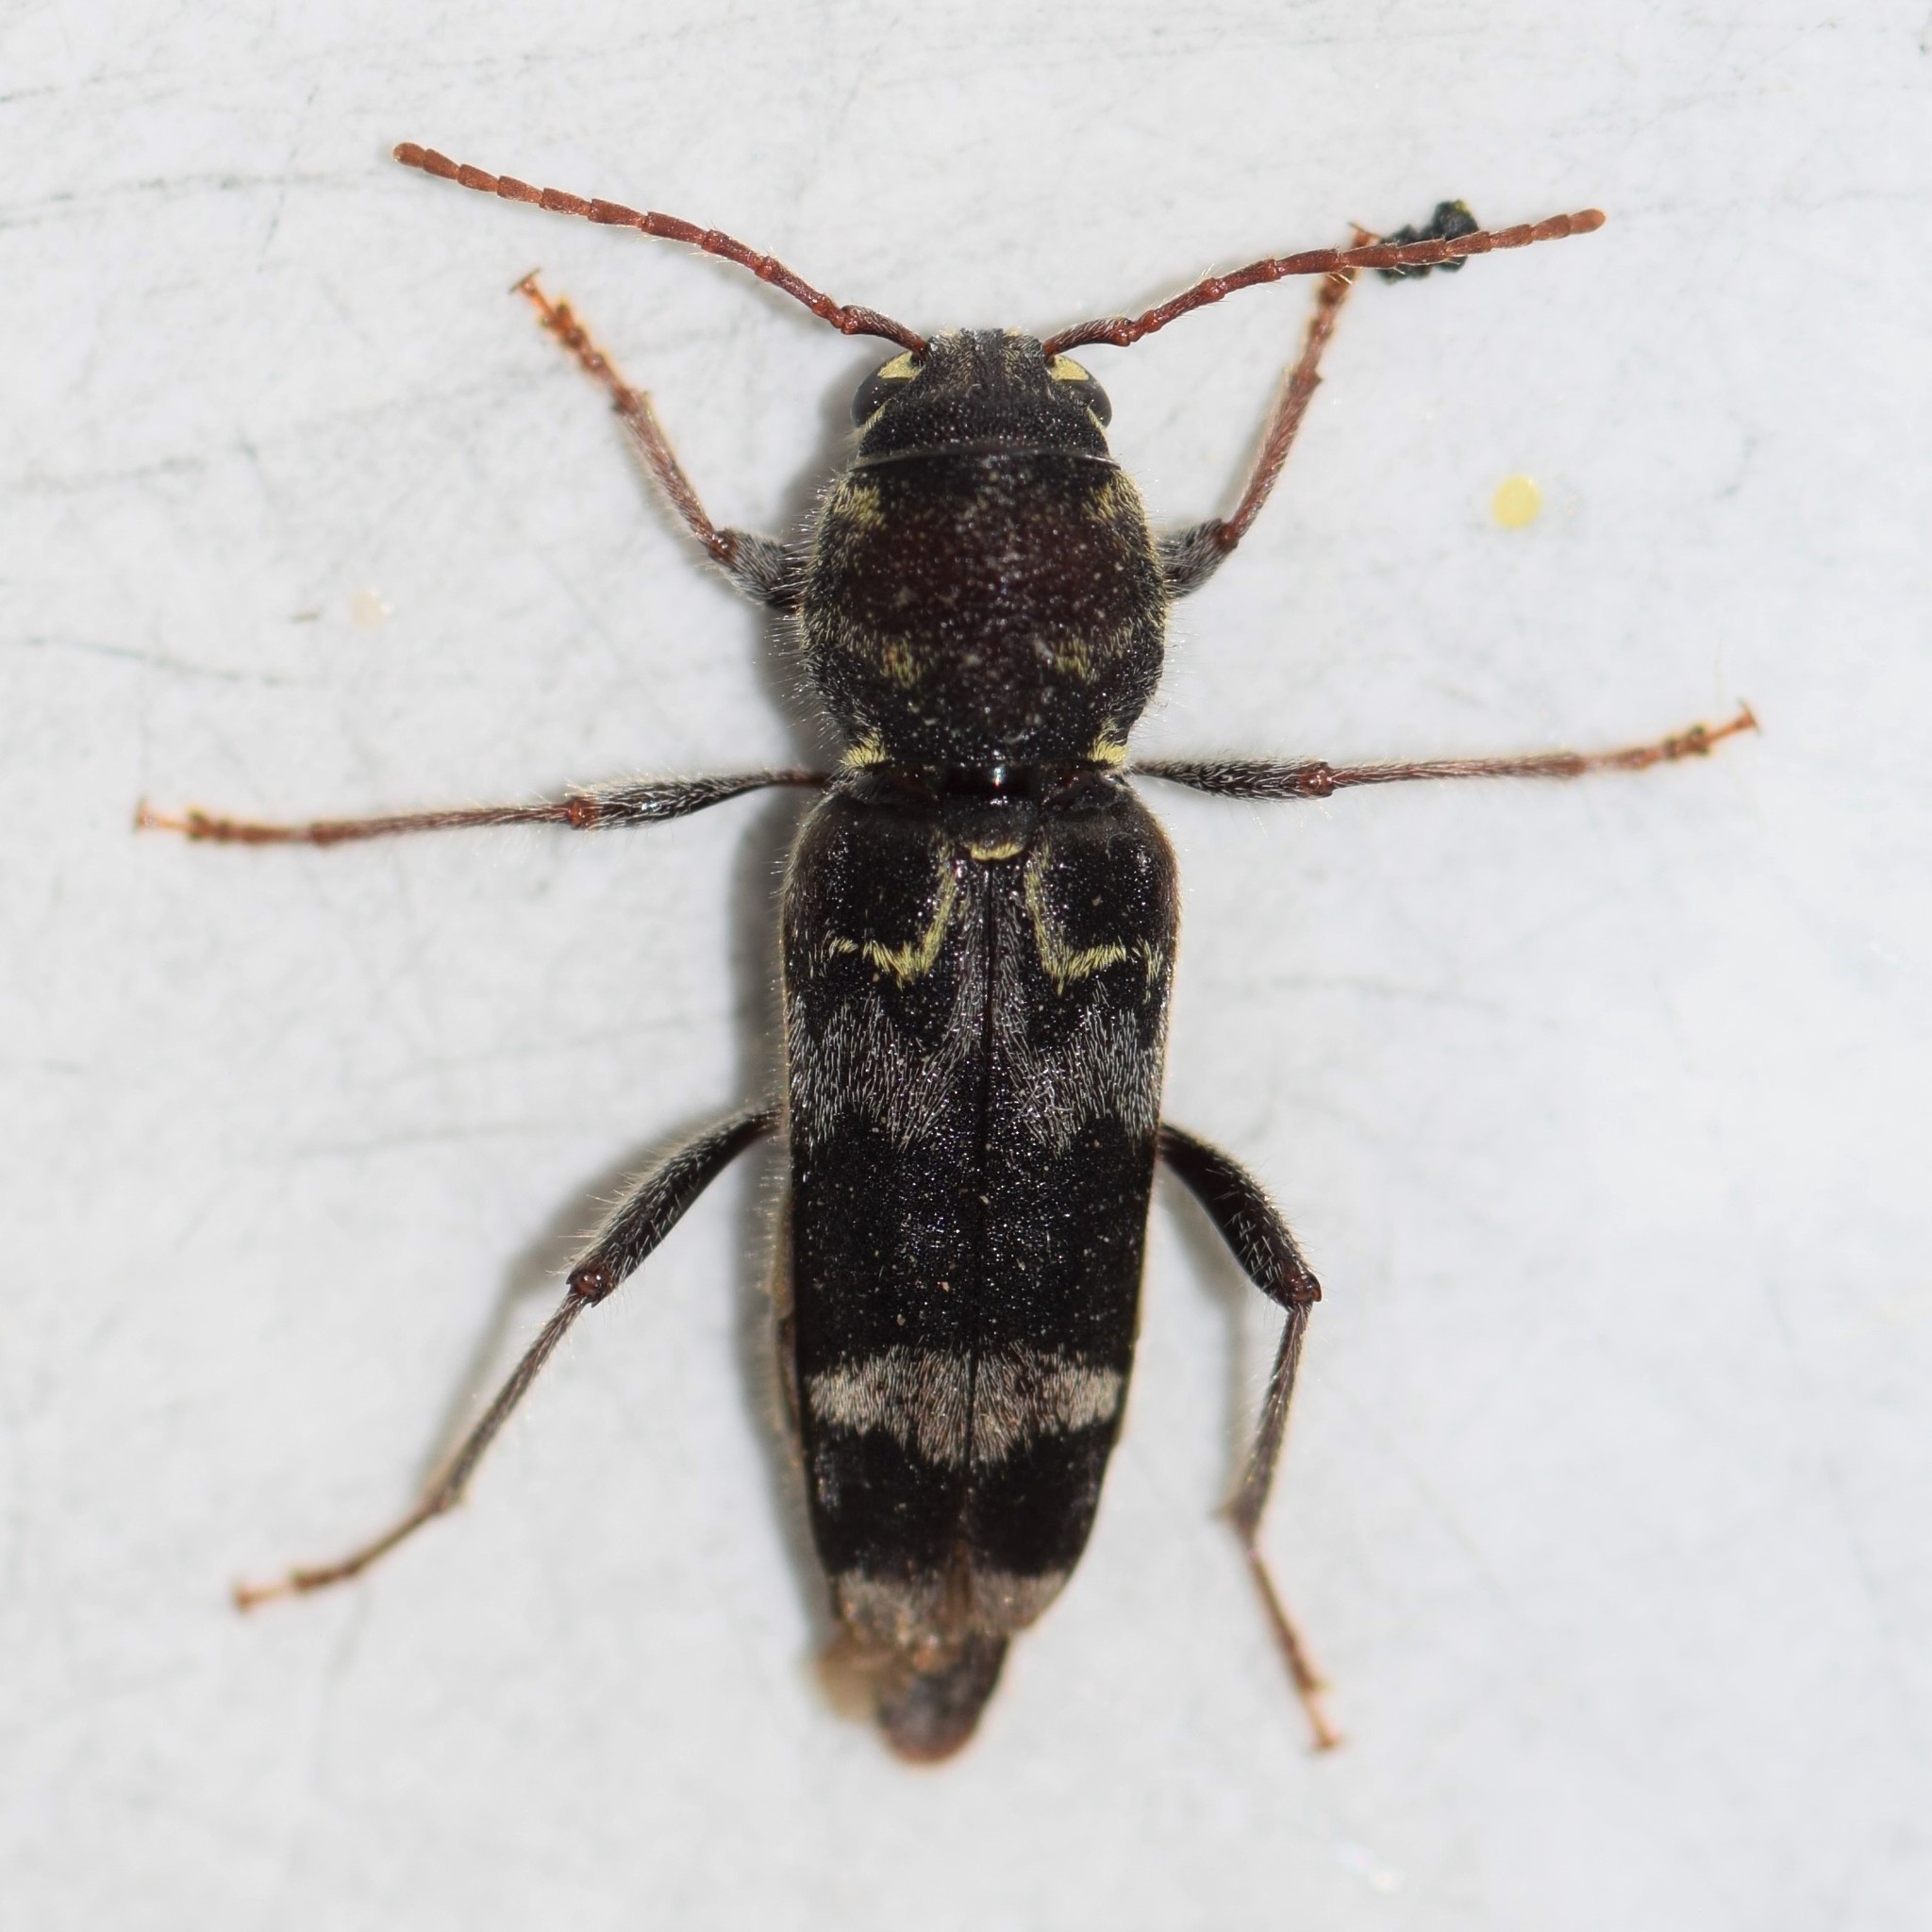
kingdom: Animalia
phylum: Arthropoda
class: Insecta
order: Coleoptera
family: Cerambycidae
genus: Xylotrechus
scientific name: Xylotrechus colonus
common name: Long-horned beetle
